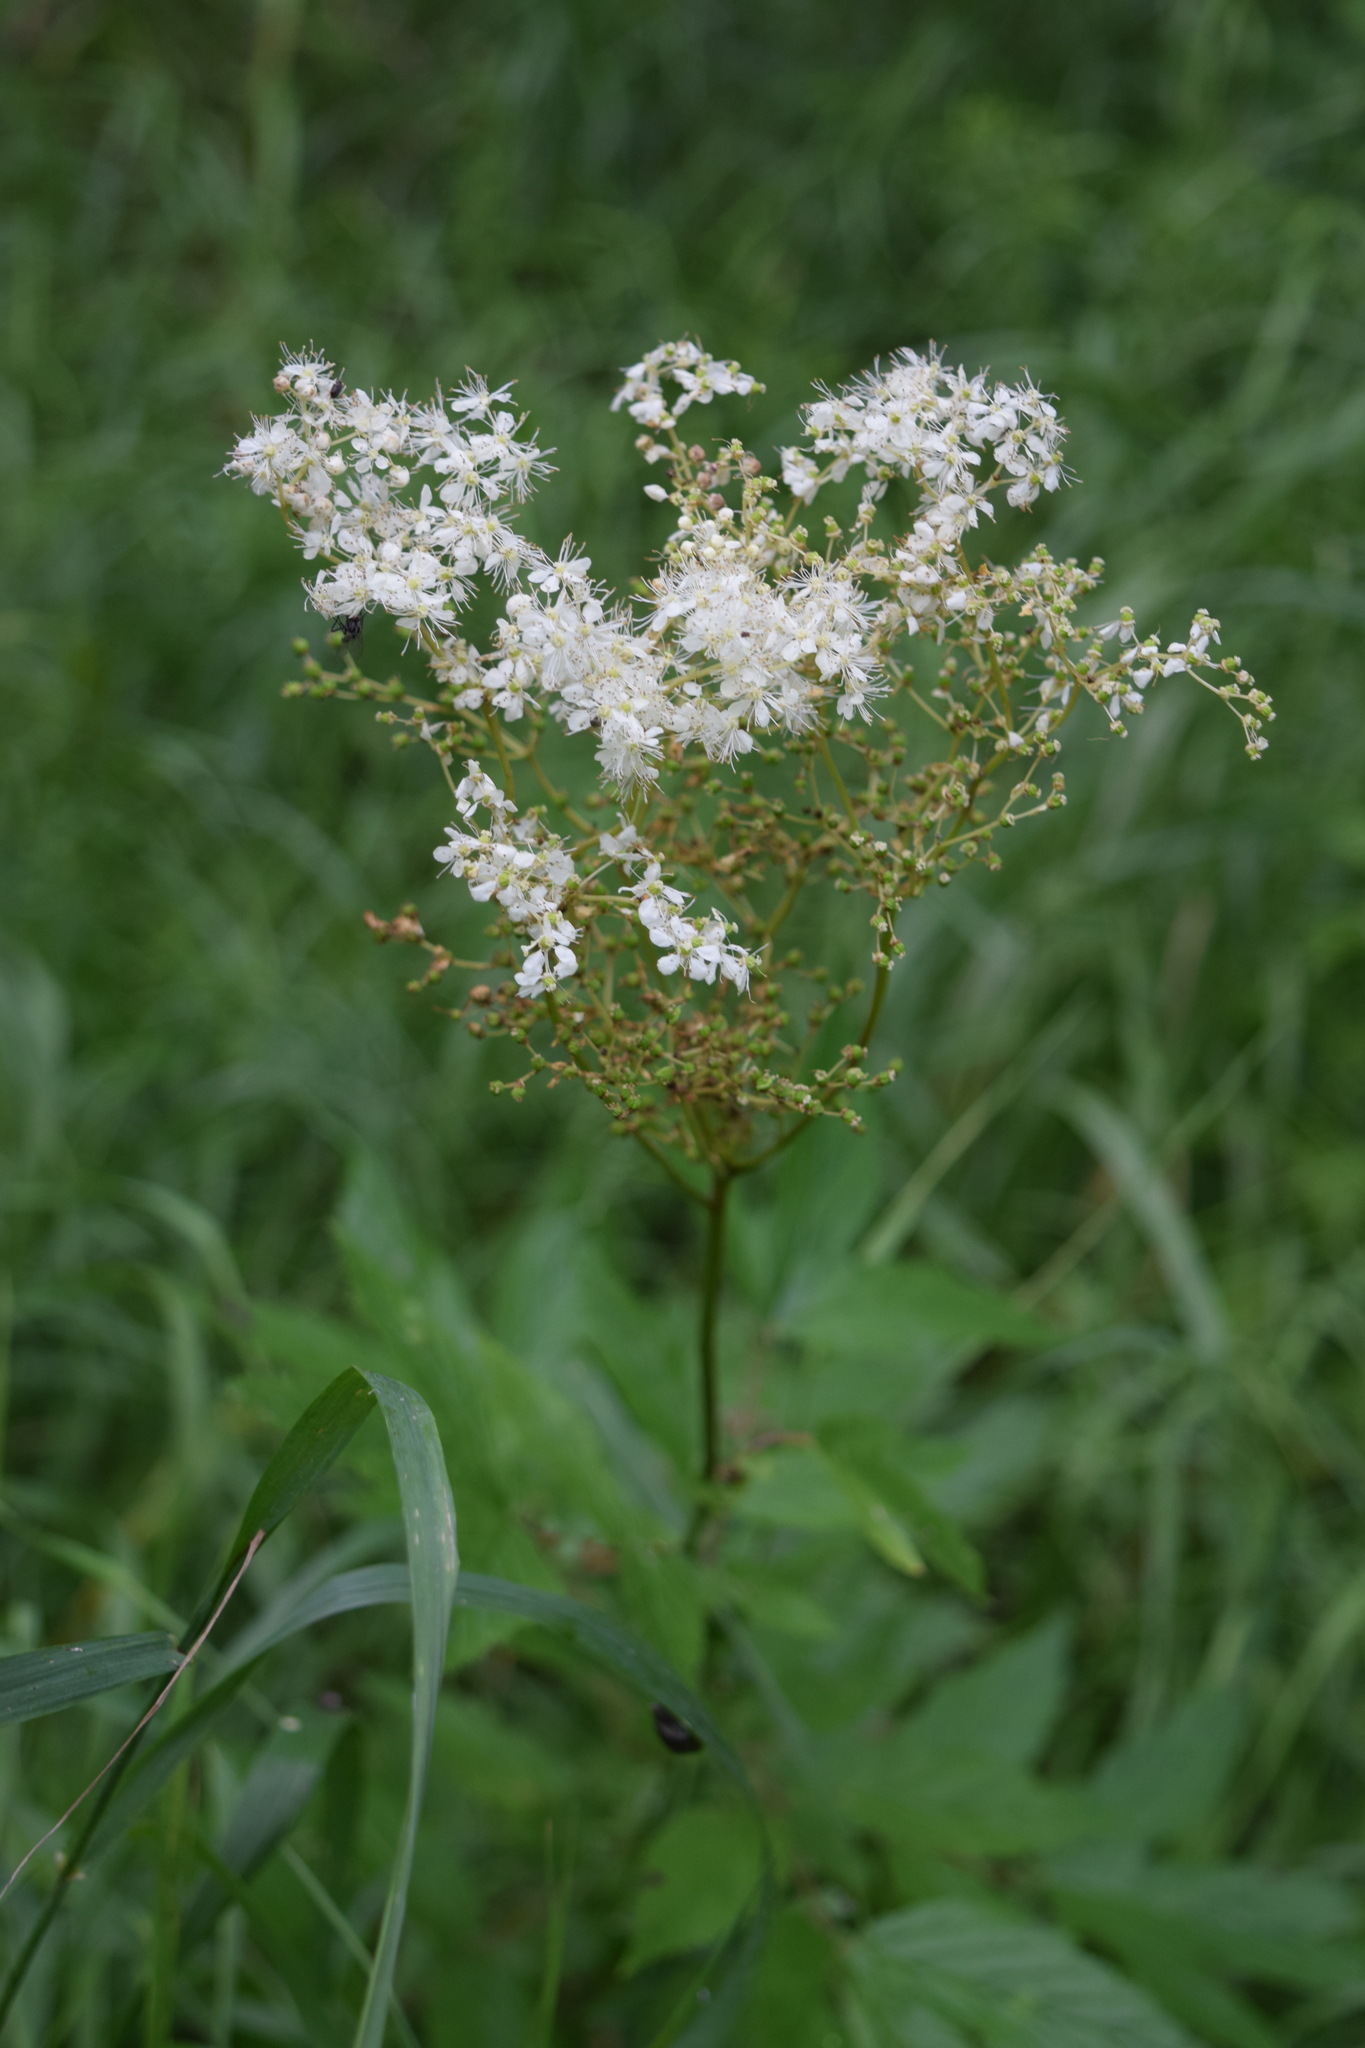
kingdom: Plantae
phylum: Tracheophyta
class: Magnoliopsida
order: Rosales
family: Rosaceae
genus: Filipendula
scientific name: Filipendula ulmaria
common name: Meadowsweet
